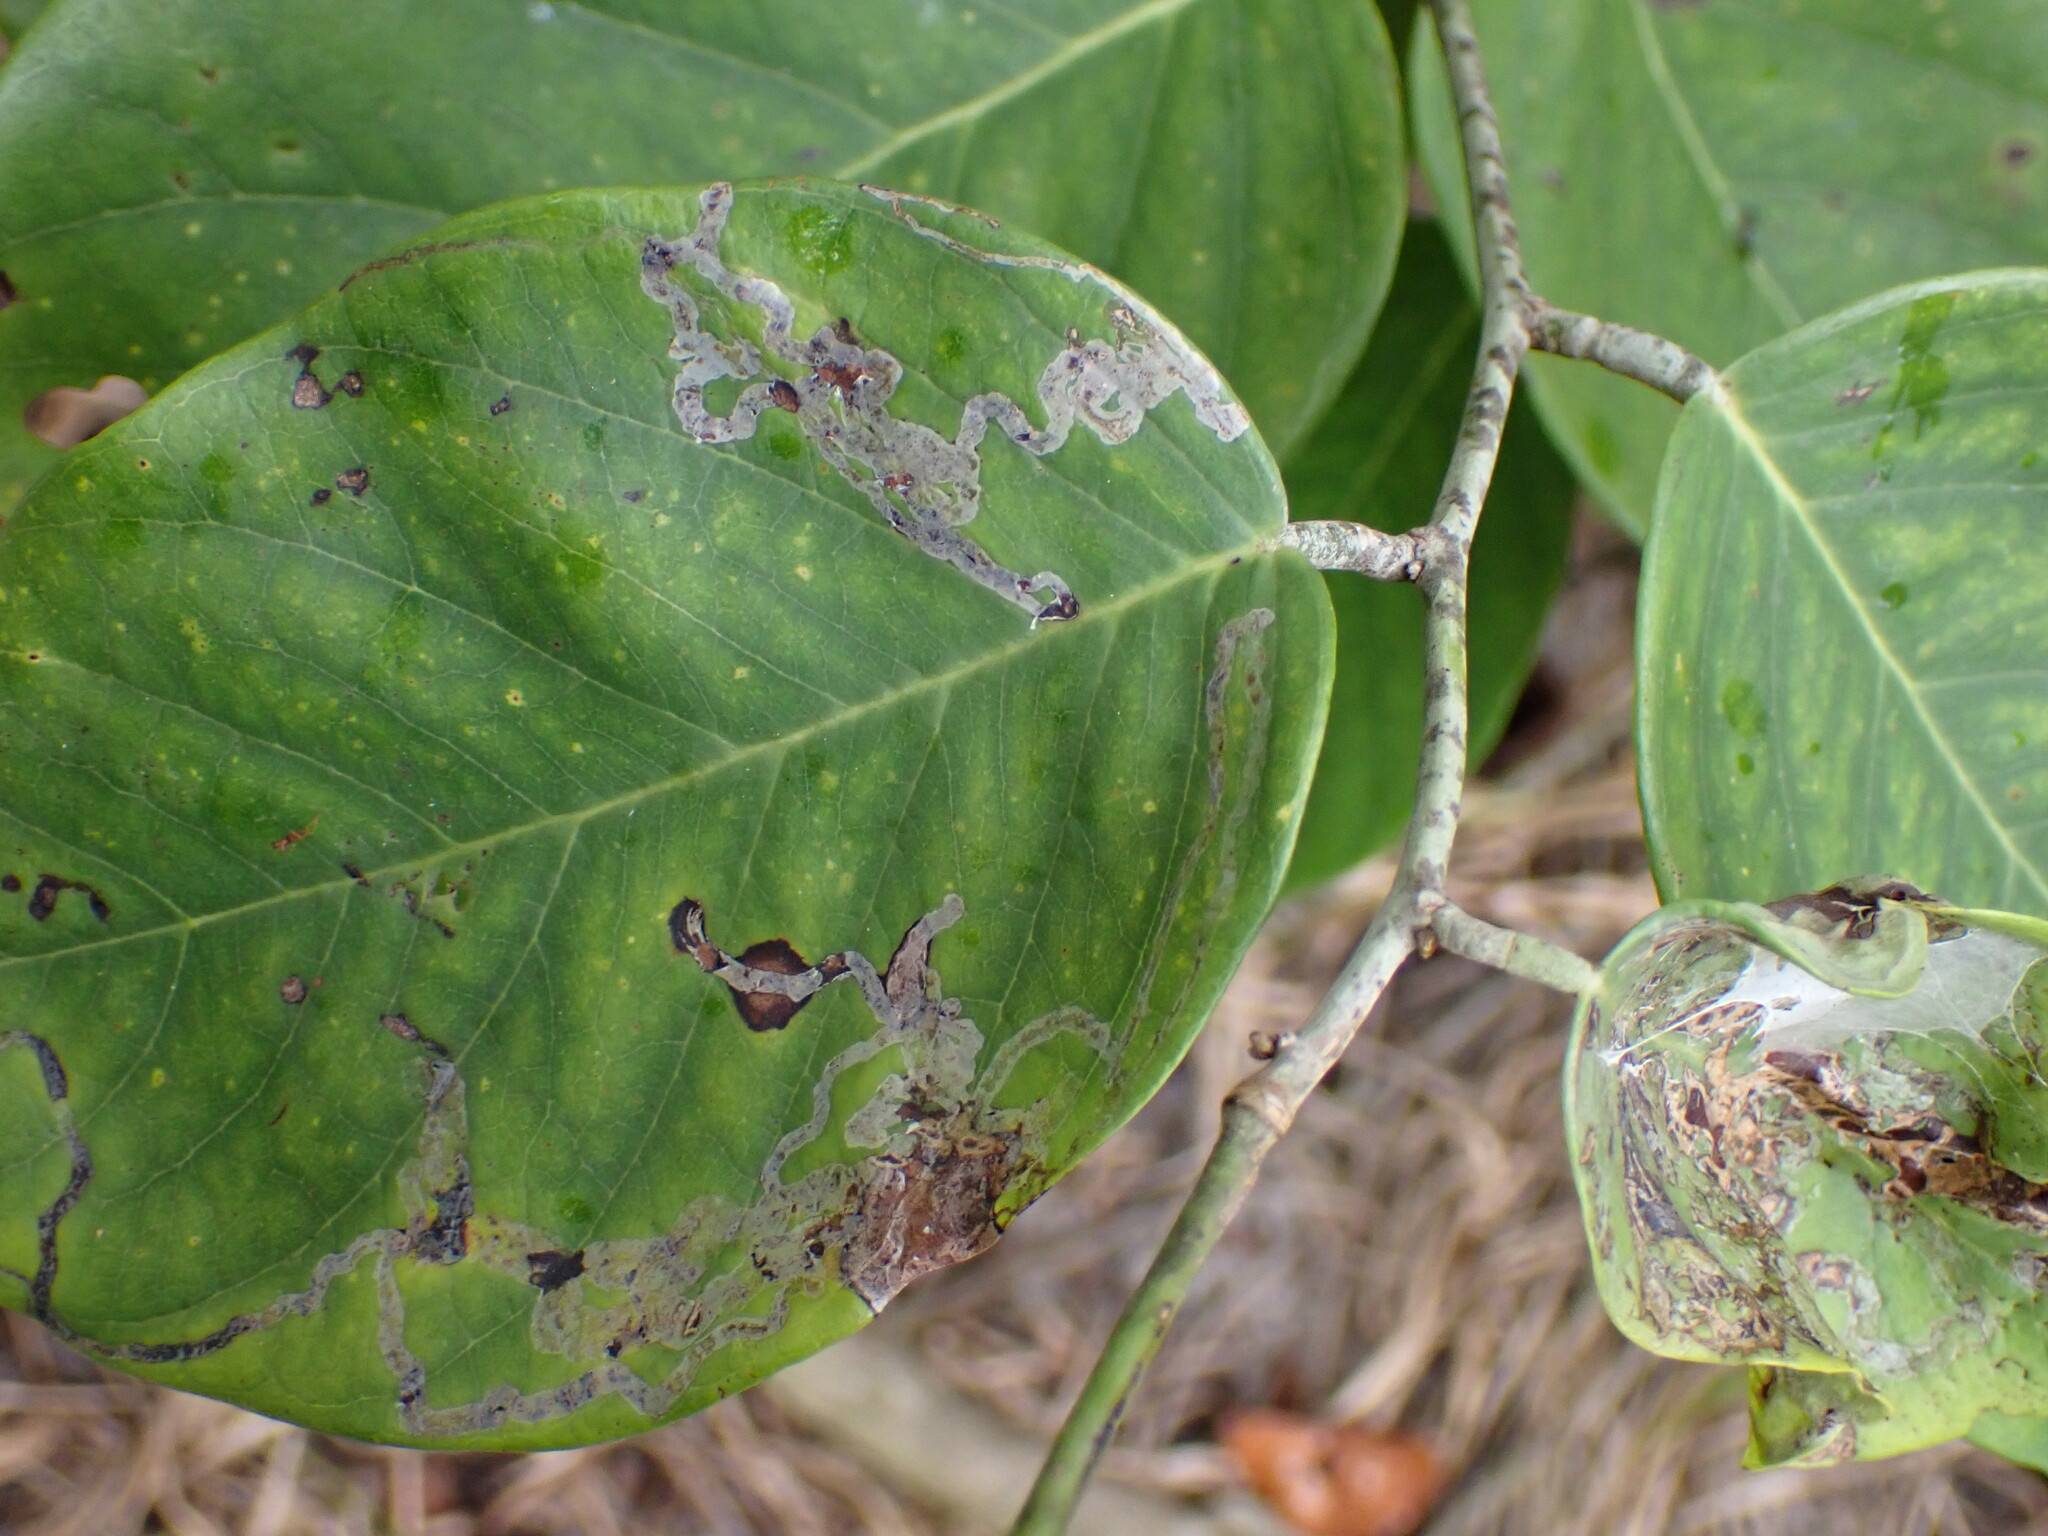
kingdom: Animalia
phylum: Arthropoda
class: Insecta
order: Diptera
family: Agromyzidae
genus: Liriomyza
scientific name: Liriomyza schmidti
